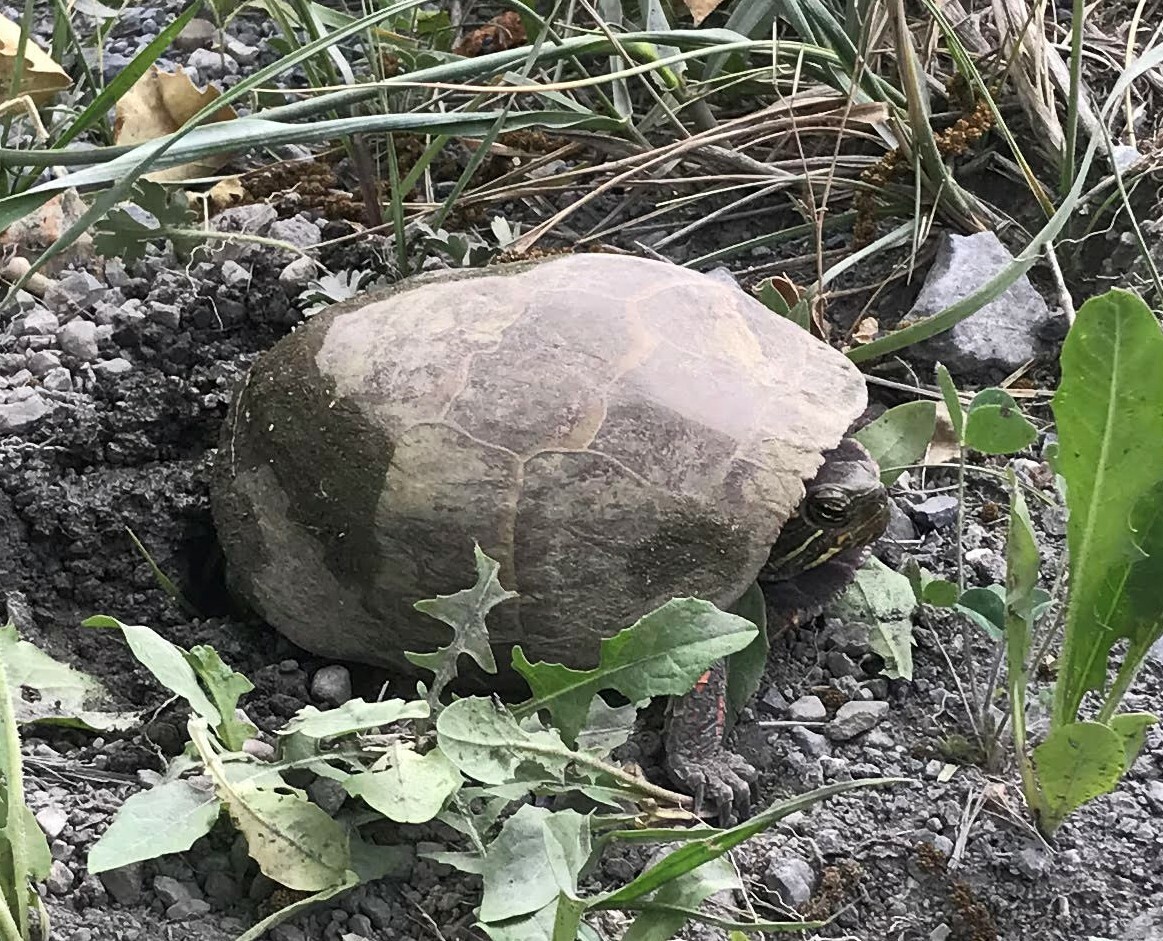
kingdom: Animalia
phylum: Chordata
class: Testudines
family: Emydidae
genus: Chrysemys
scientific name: Chrysemys picta
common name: Painted turtle
